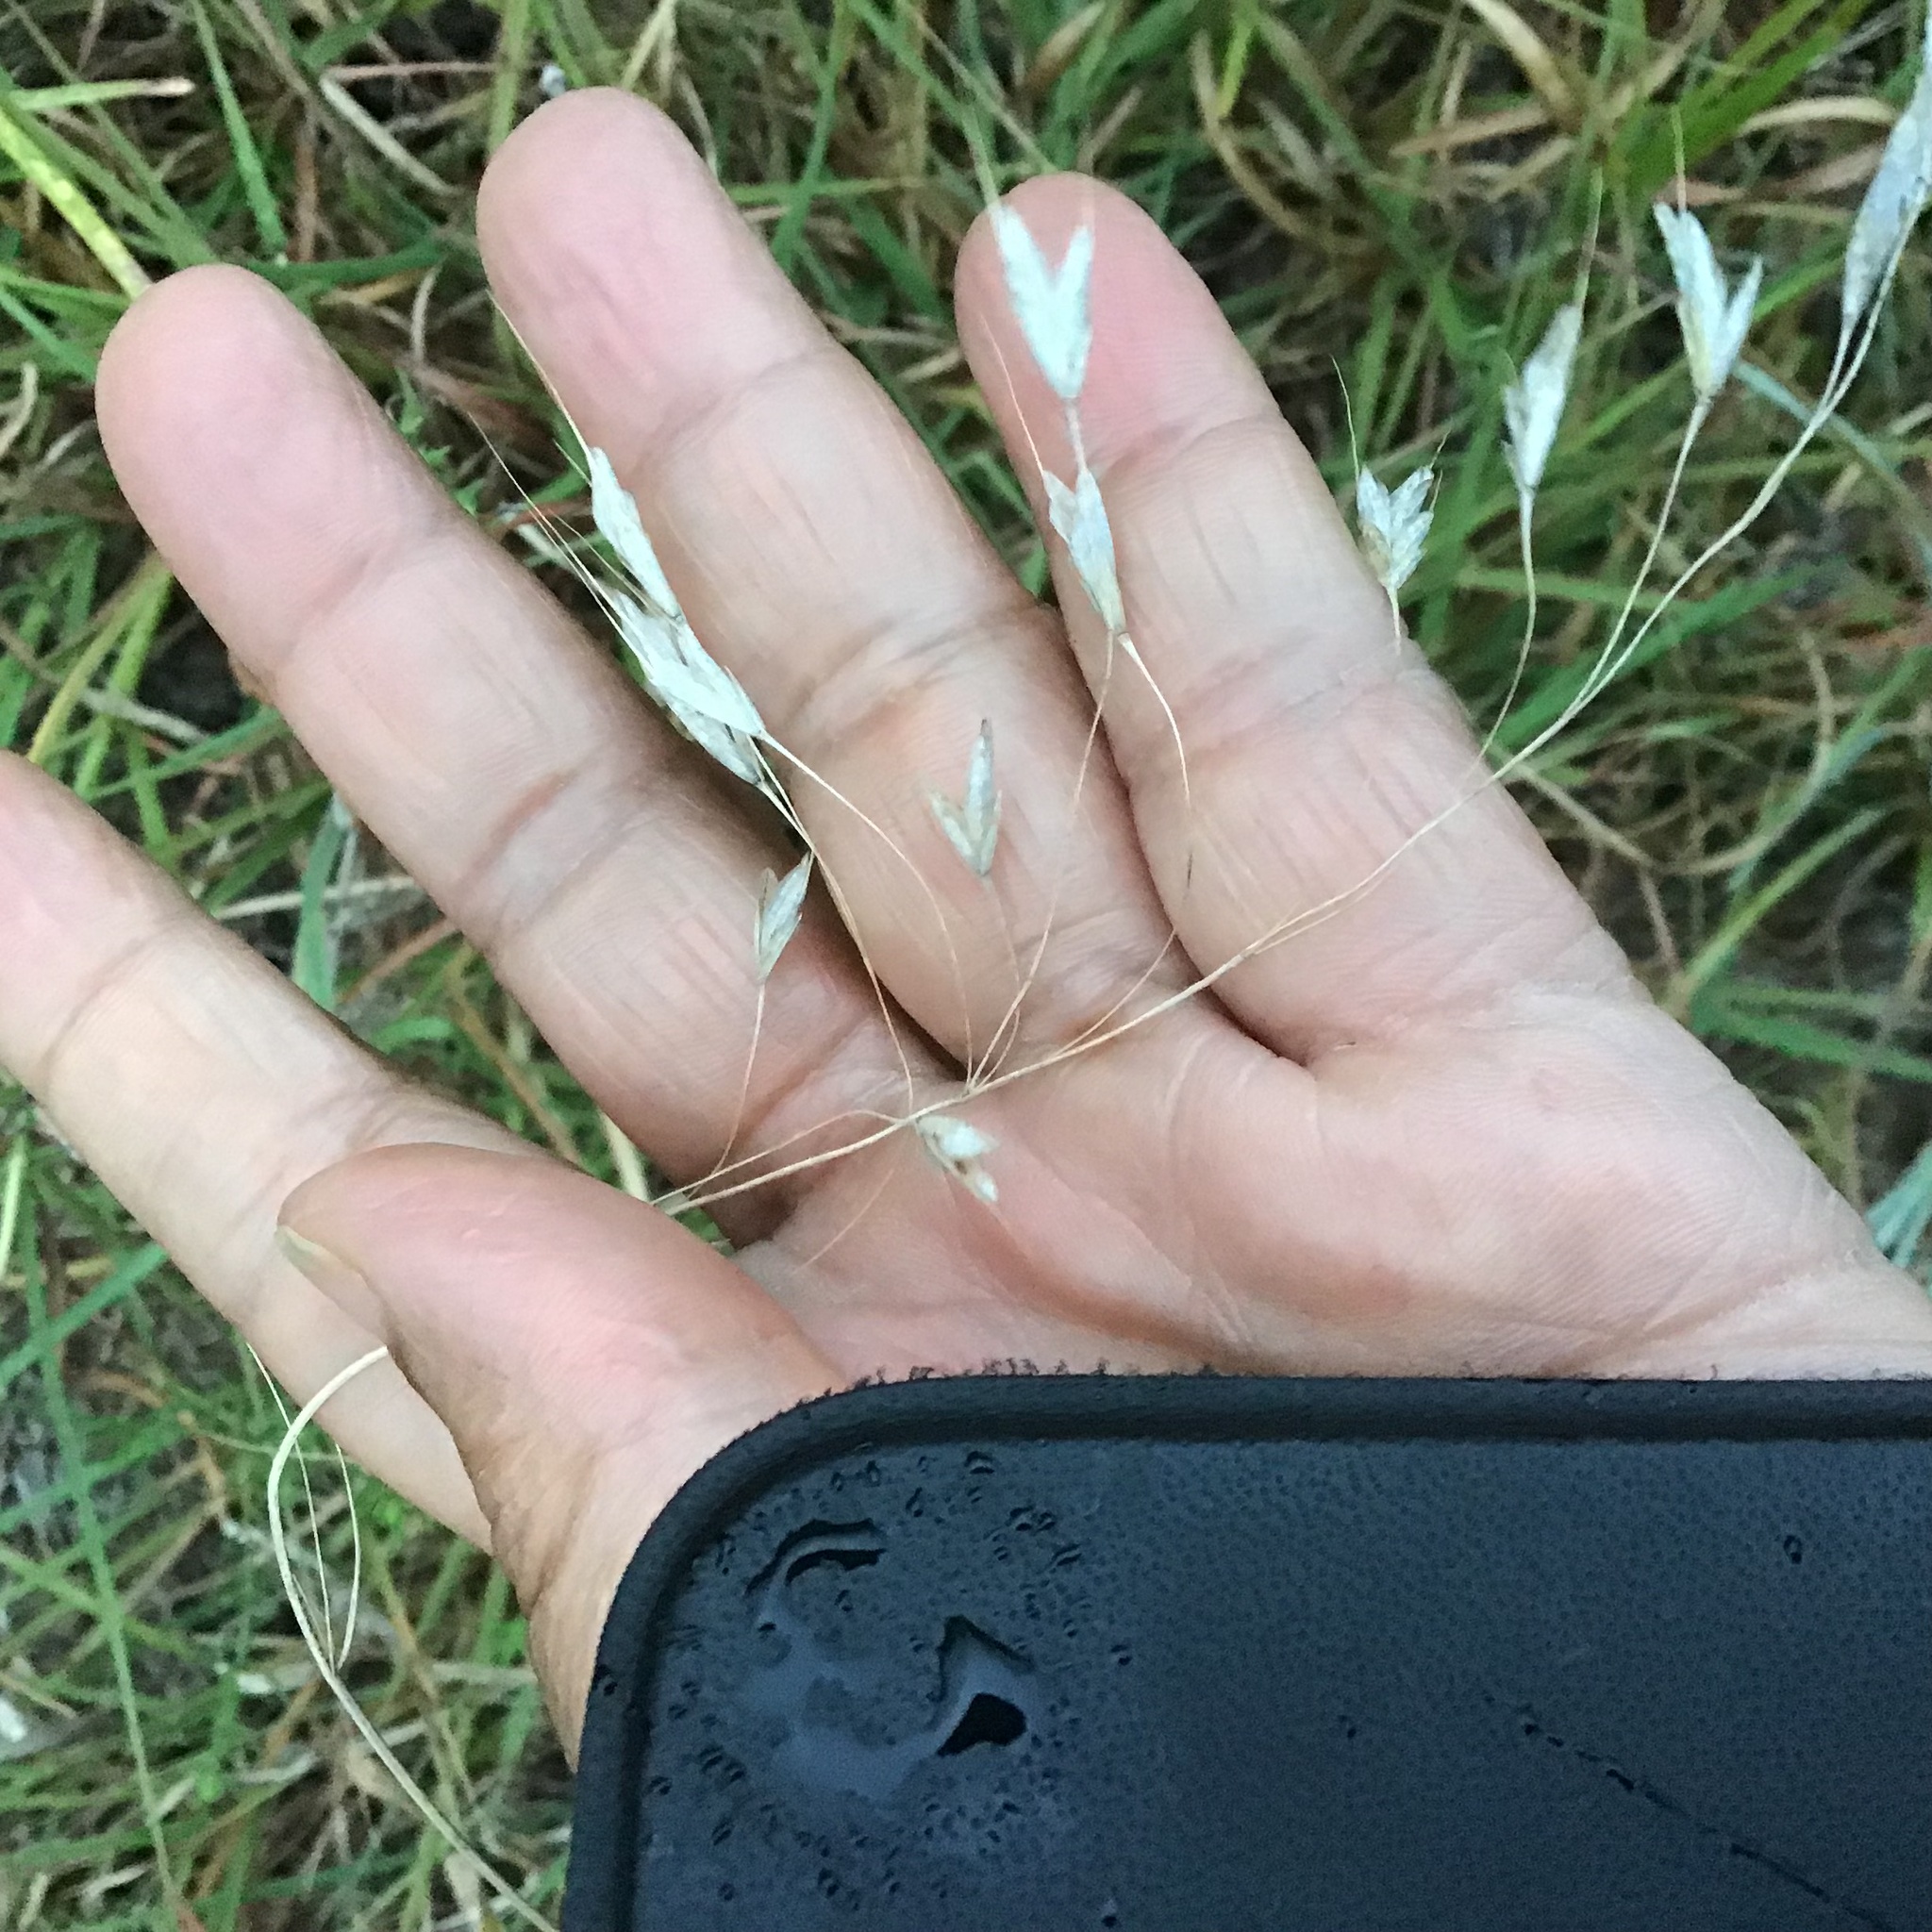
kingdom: Plantae
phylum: Tracheophyta
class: Liliopsida
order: Poales
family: Poaceae
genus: Bromus
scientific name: Bromus japonicus
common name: Japanese brome
